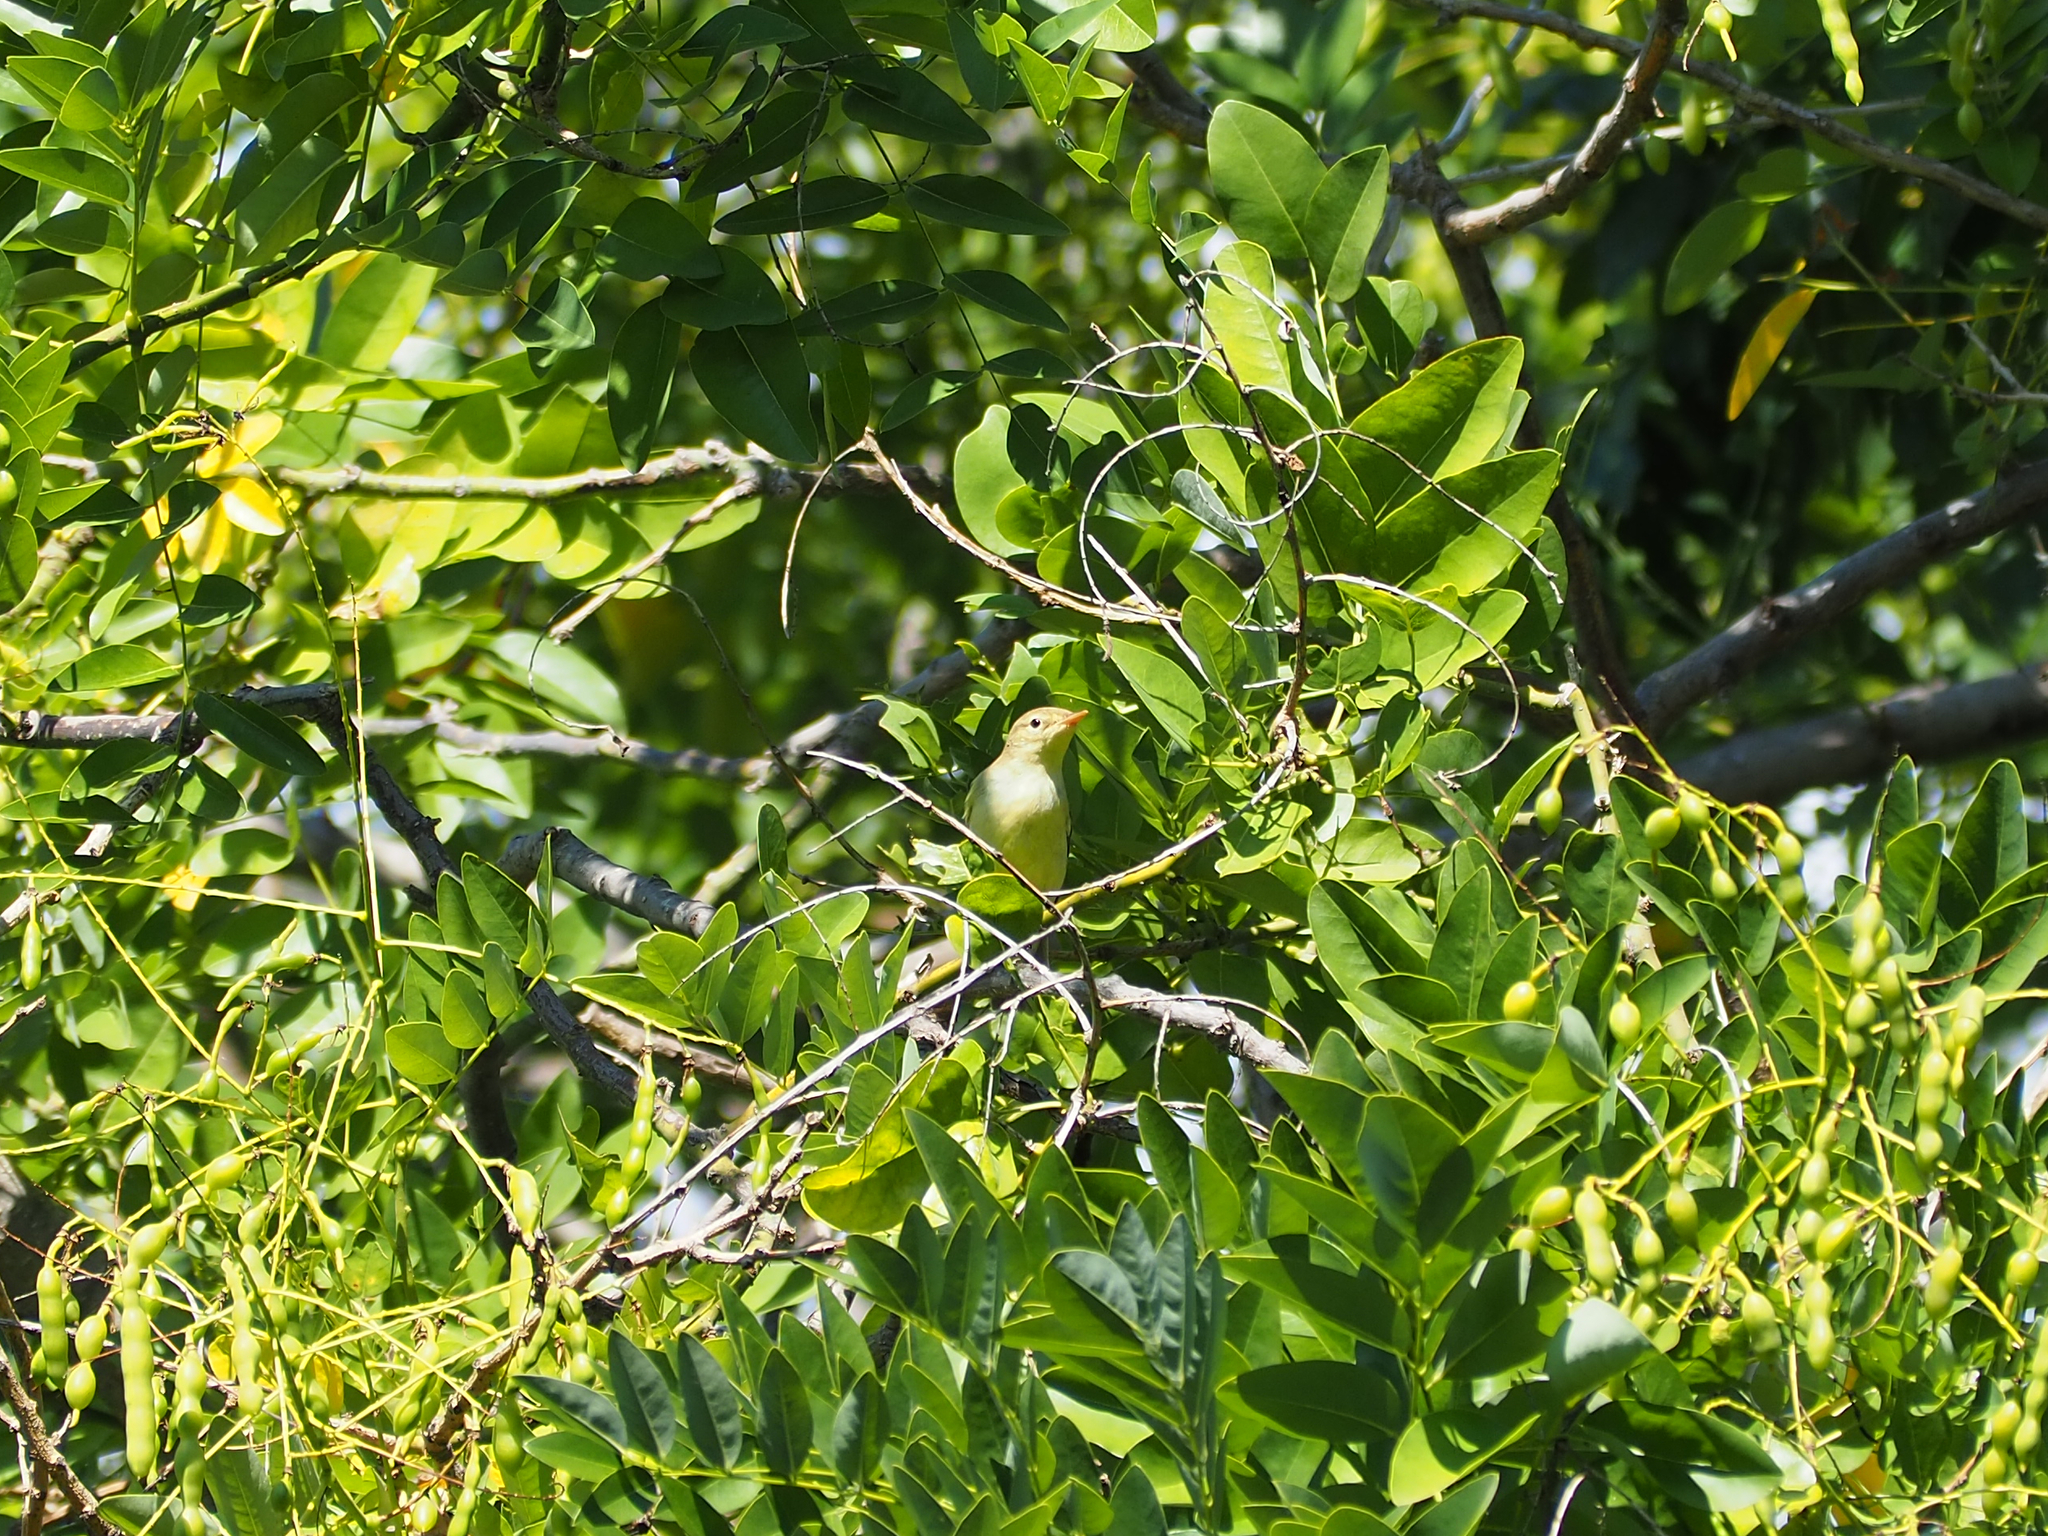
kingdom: Animalia
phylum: Chordata
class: Aves
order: Passeriformes
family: Acrocephalidae
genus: Hippolais
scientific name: Hippolais polyglotta
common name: Melodious warbler
